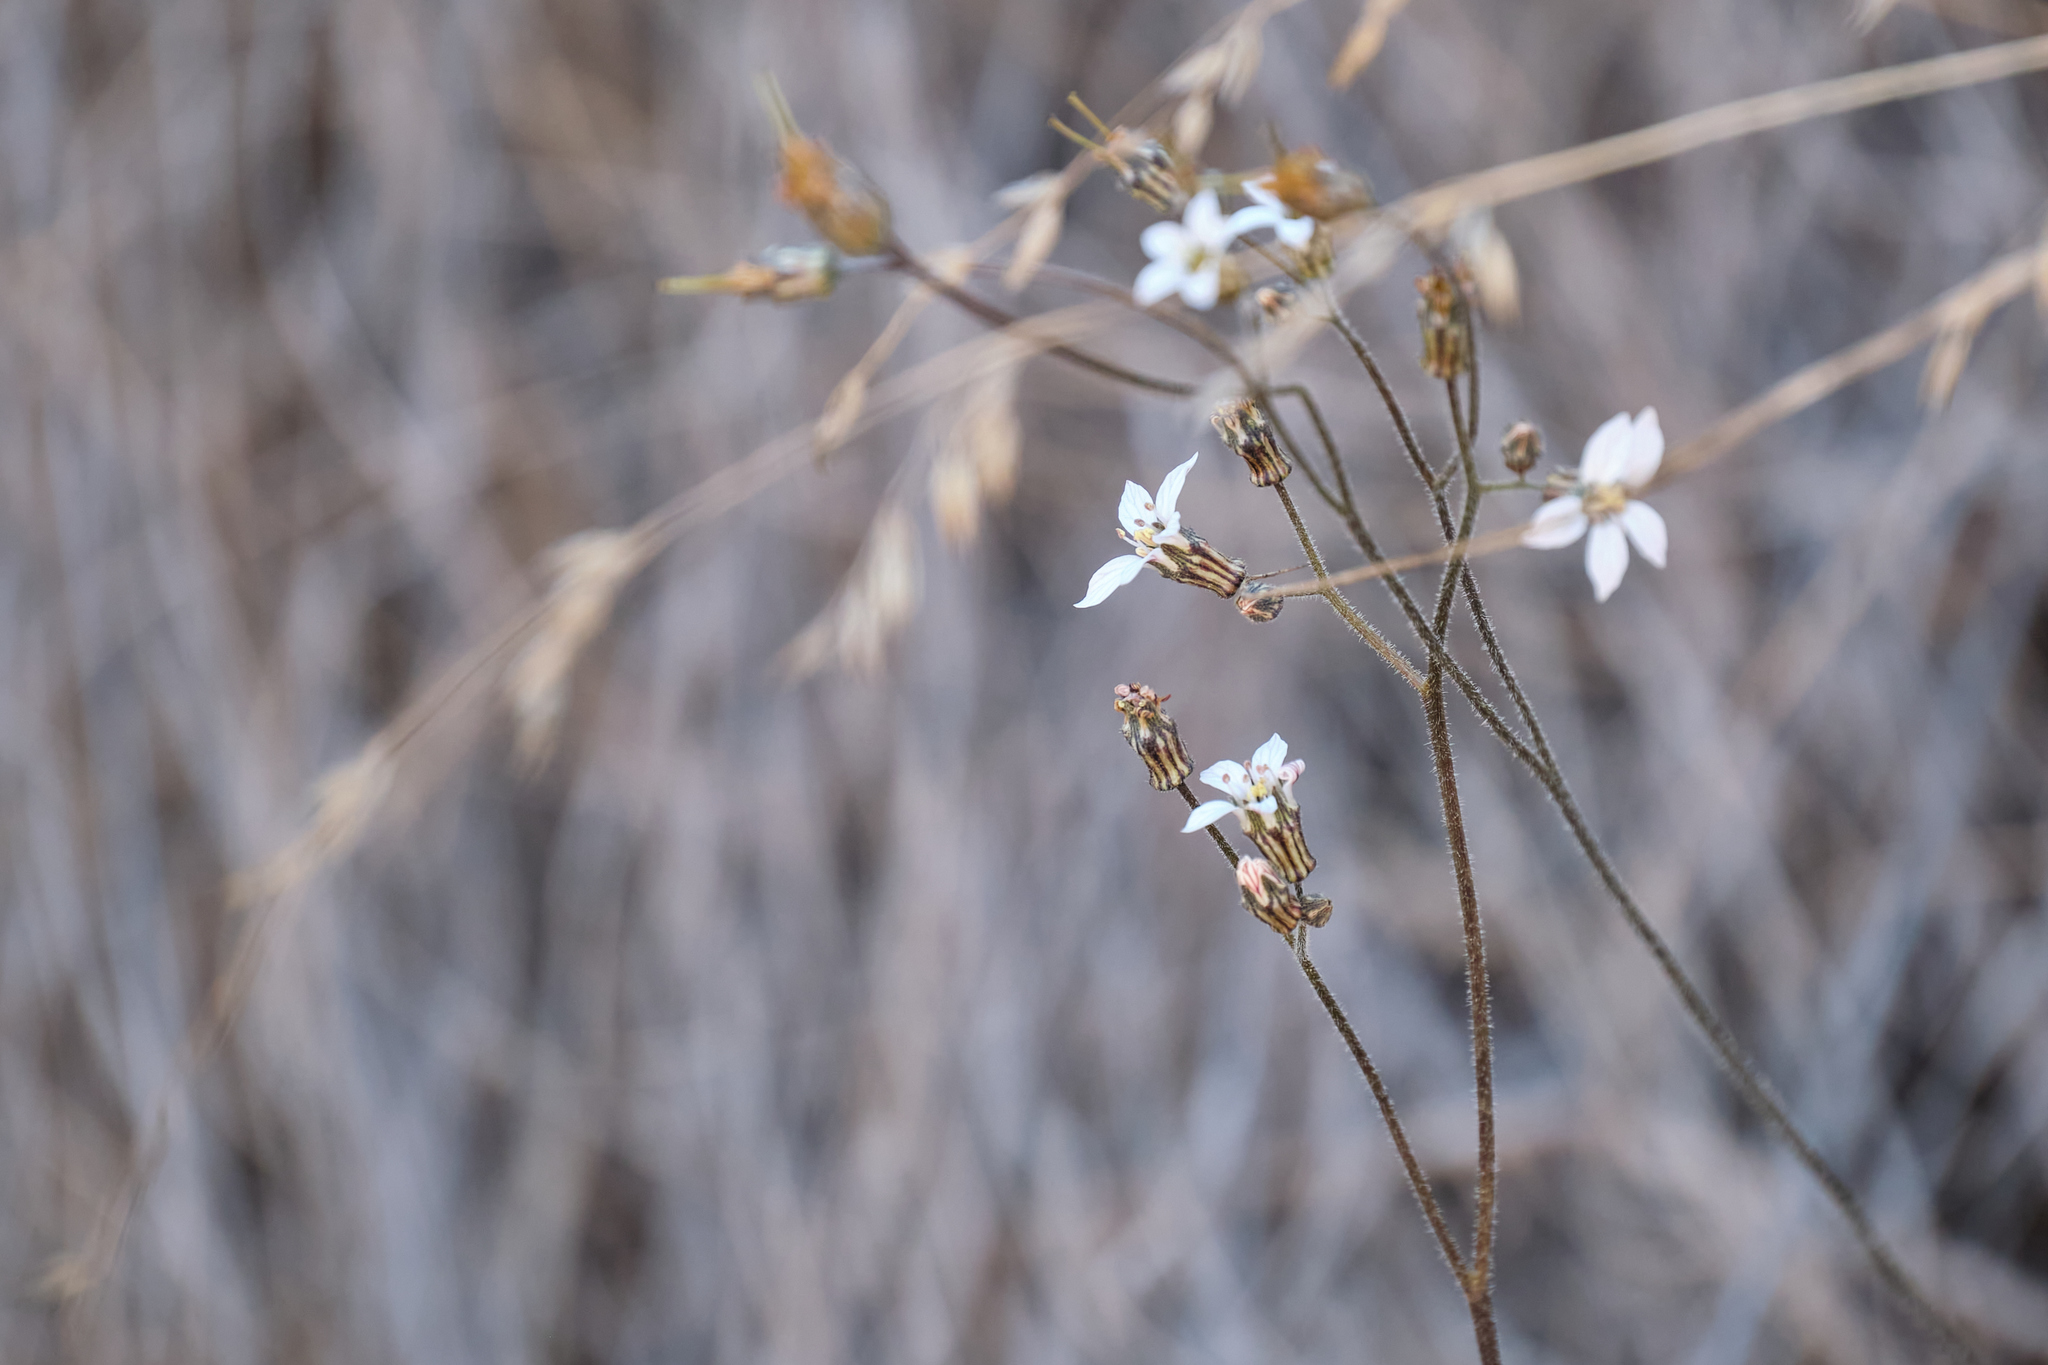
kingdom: Plantae
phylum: Tracheophyta
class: Magnoliopsida
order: Saxifragales
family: Saxifragaceae
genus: Jepsonia
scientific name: Jepsonia parryi
